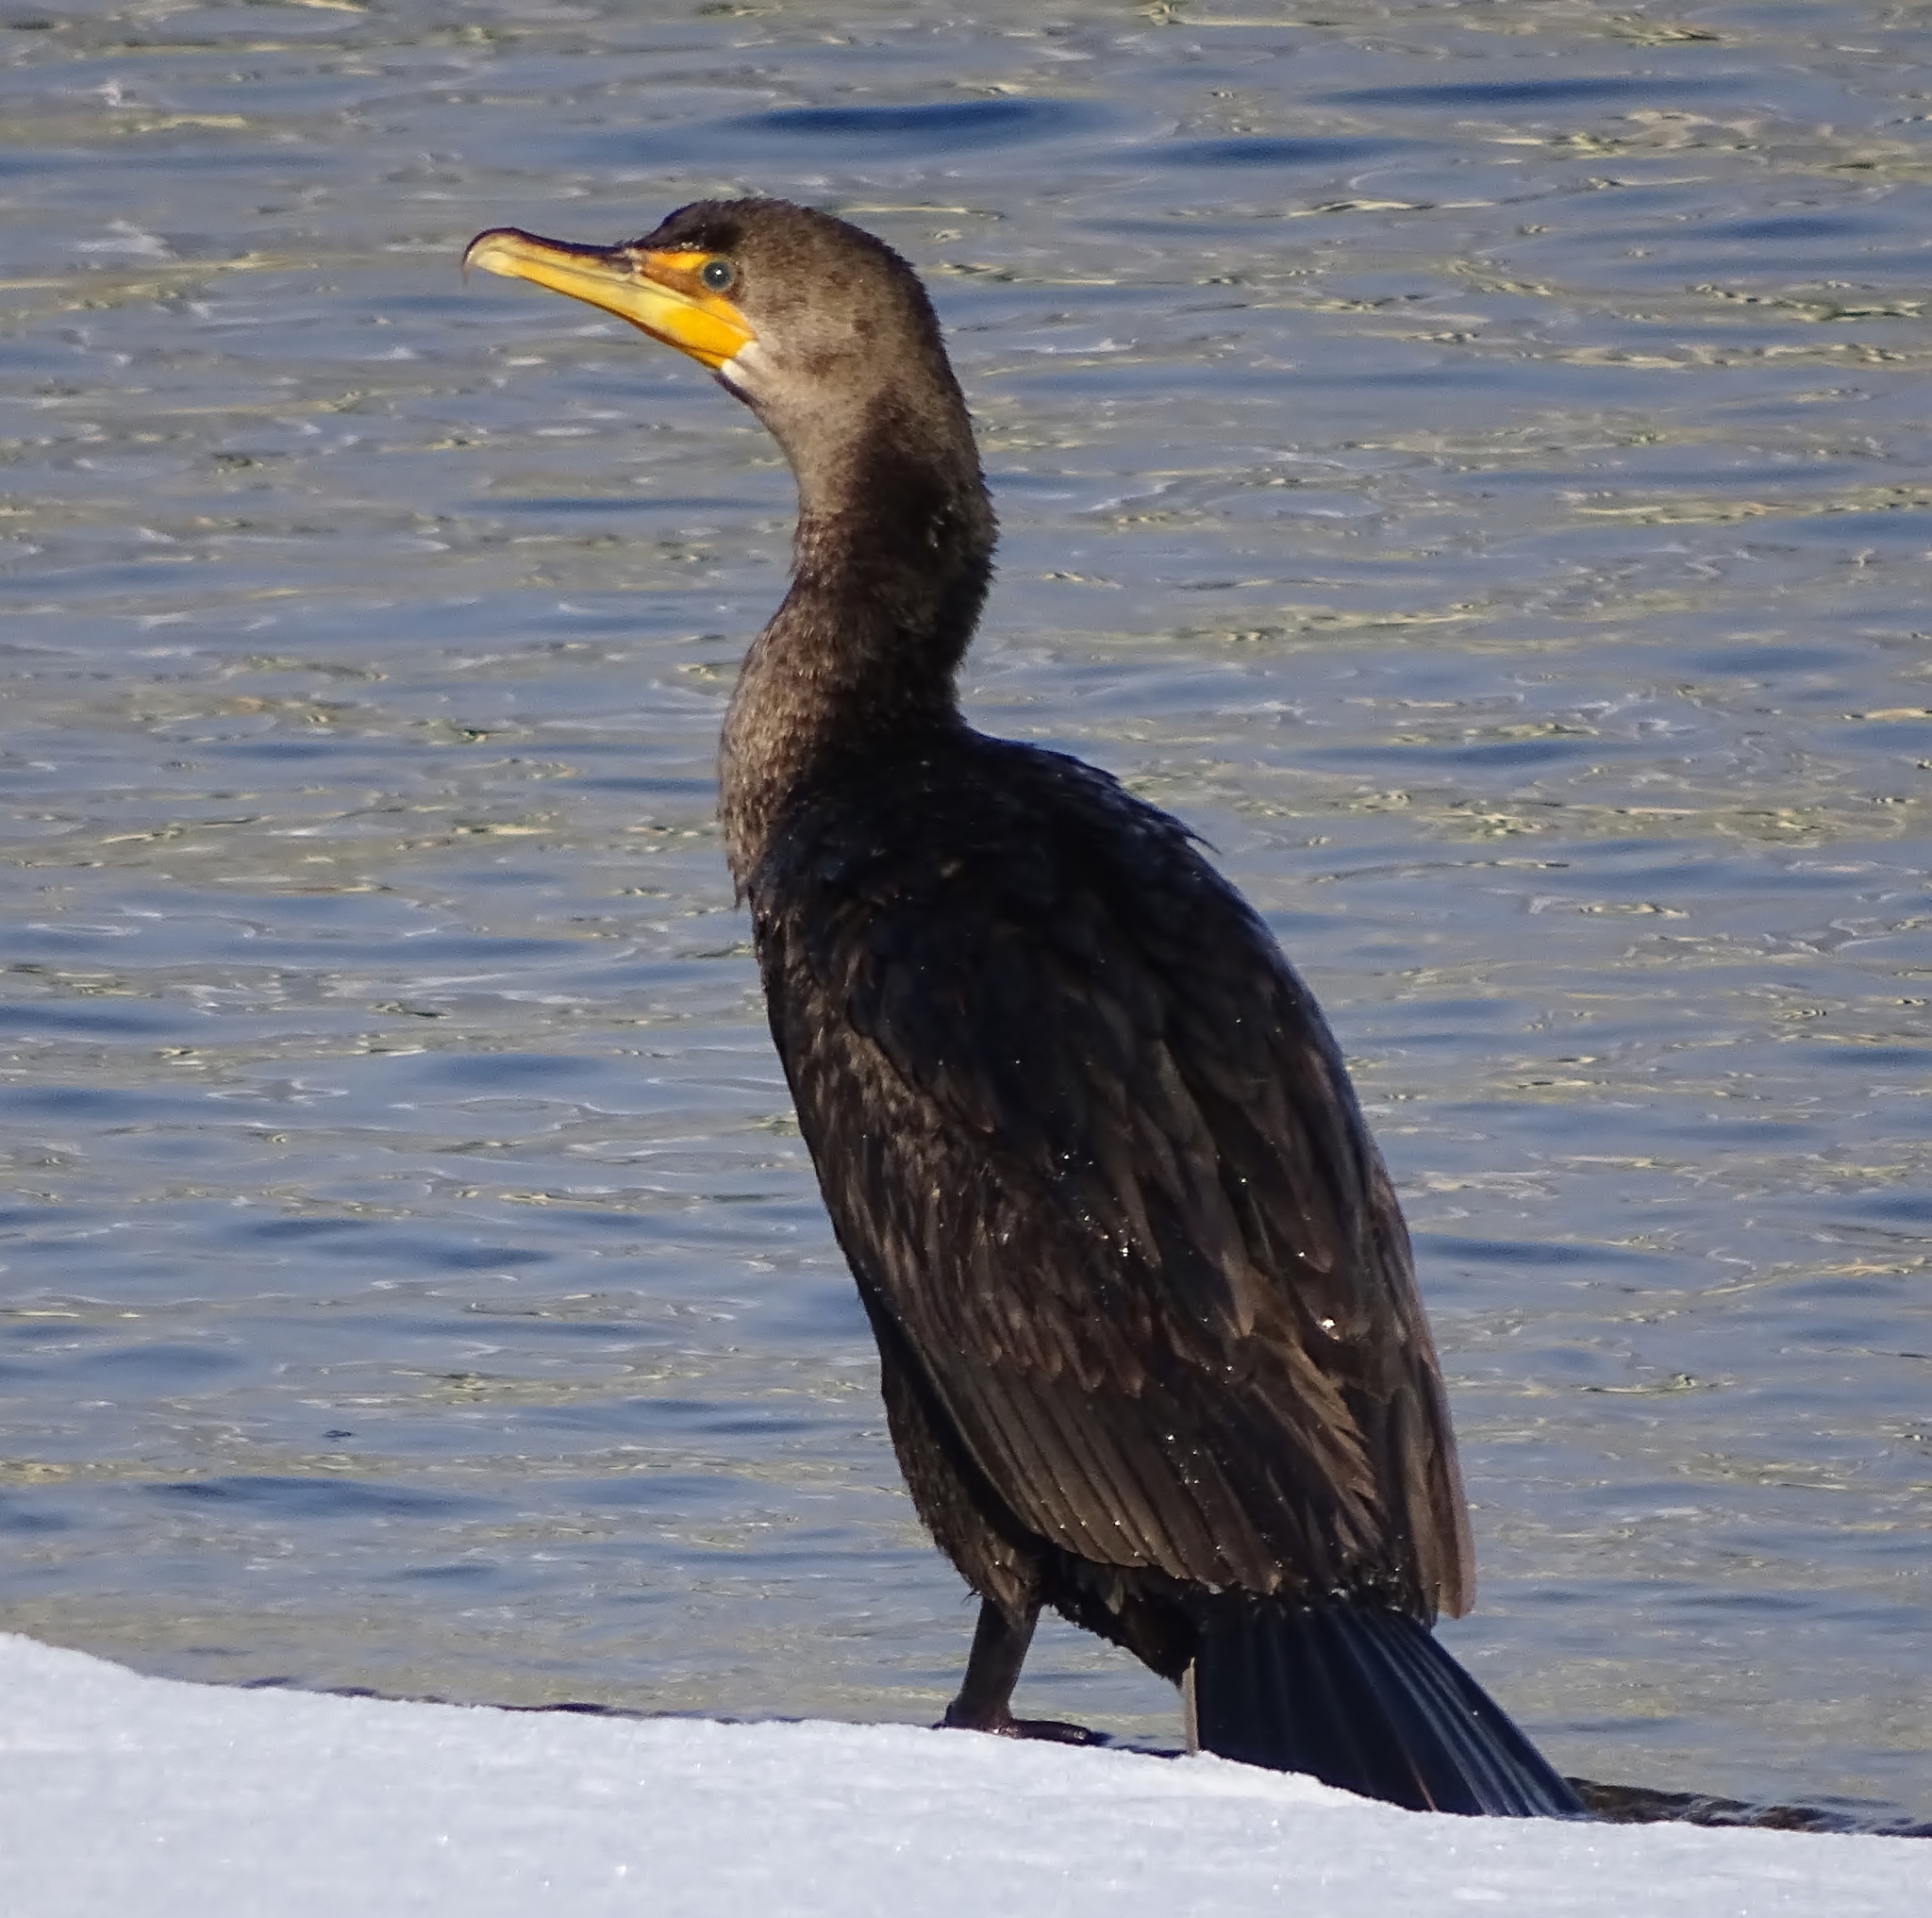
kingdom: Animalia
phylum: Chordata
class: Aves
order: Suliformes
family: Phalacrocoracidae
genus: Phalacrocorax
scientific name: Phalacrocorax auritus
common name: Double-crested cormorant
